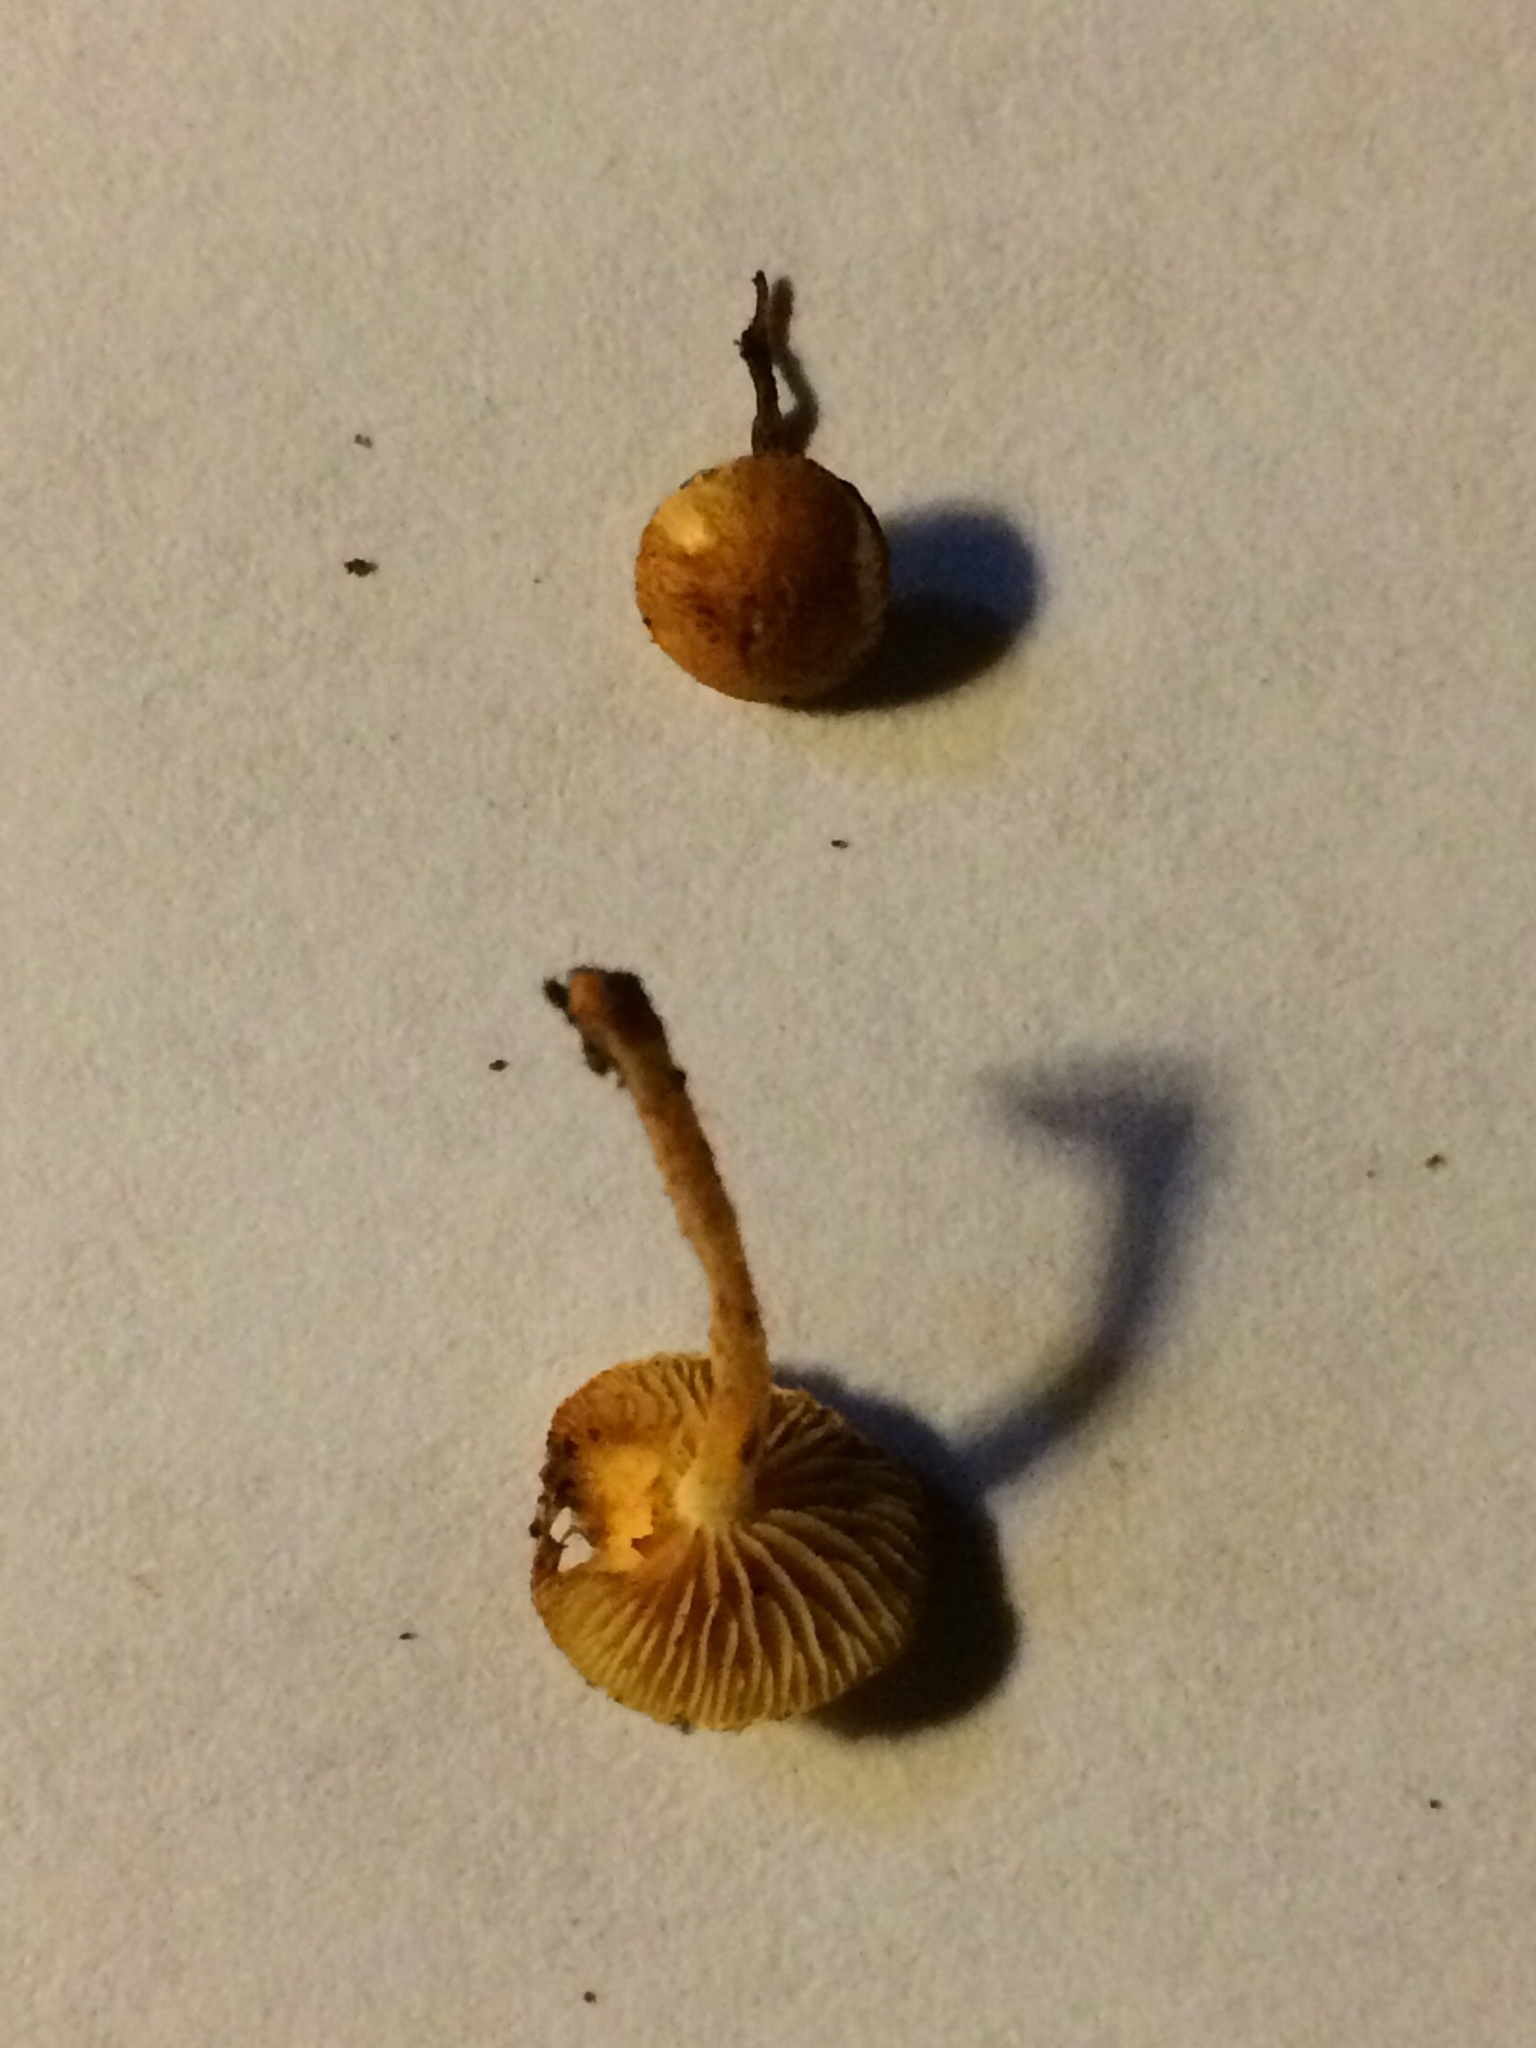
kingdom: Fungi
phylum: Basidiomycota
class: Agaricomycetes
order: Agaricales
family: Strophariaceae
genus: Pholiota
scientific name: Pholiota tuberculosa
